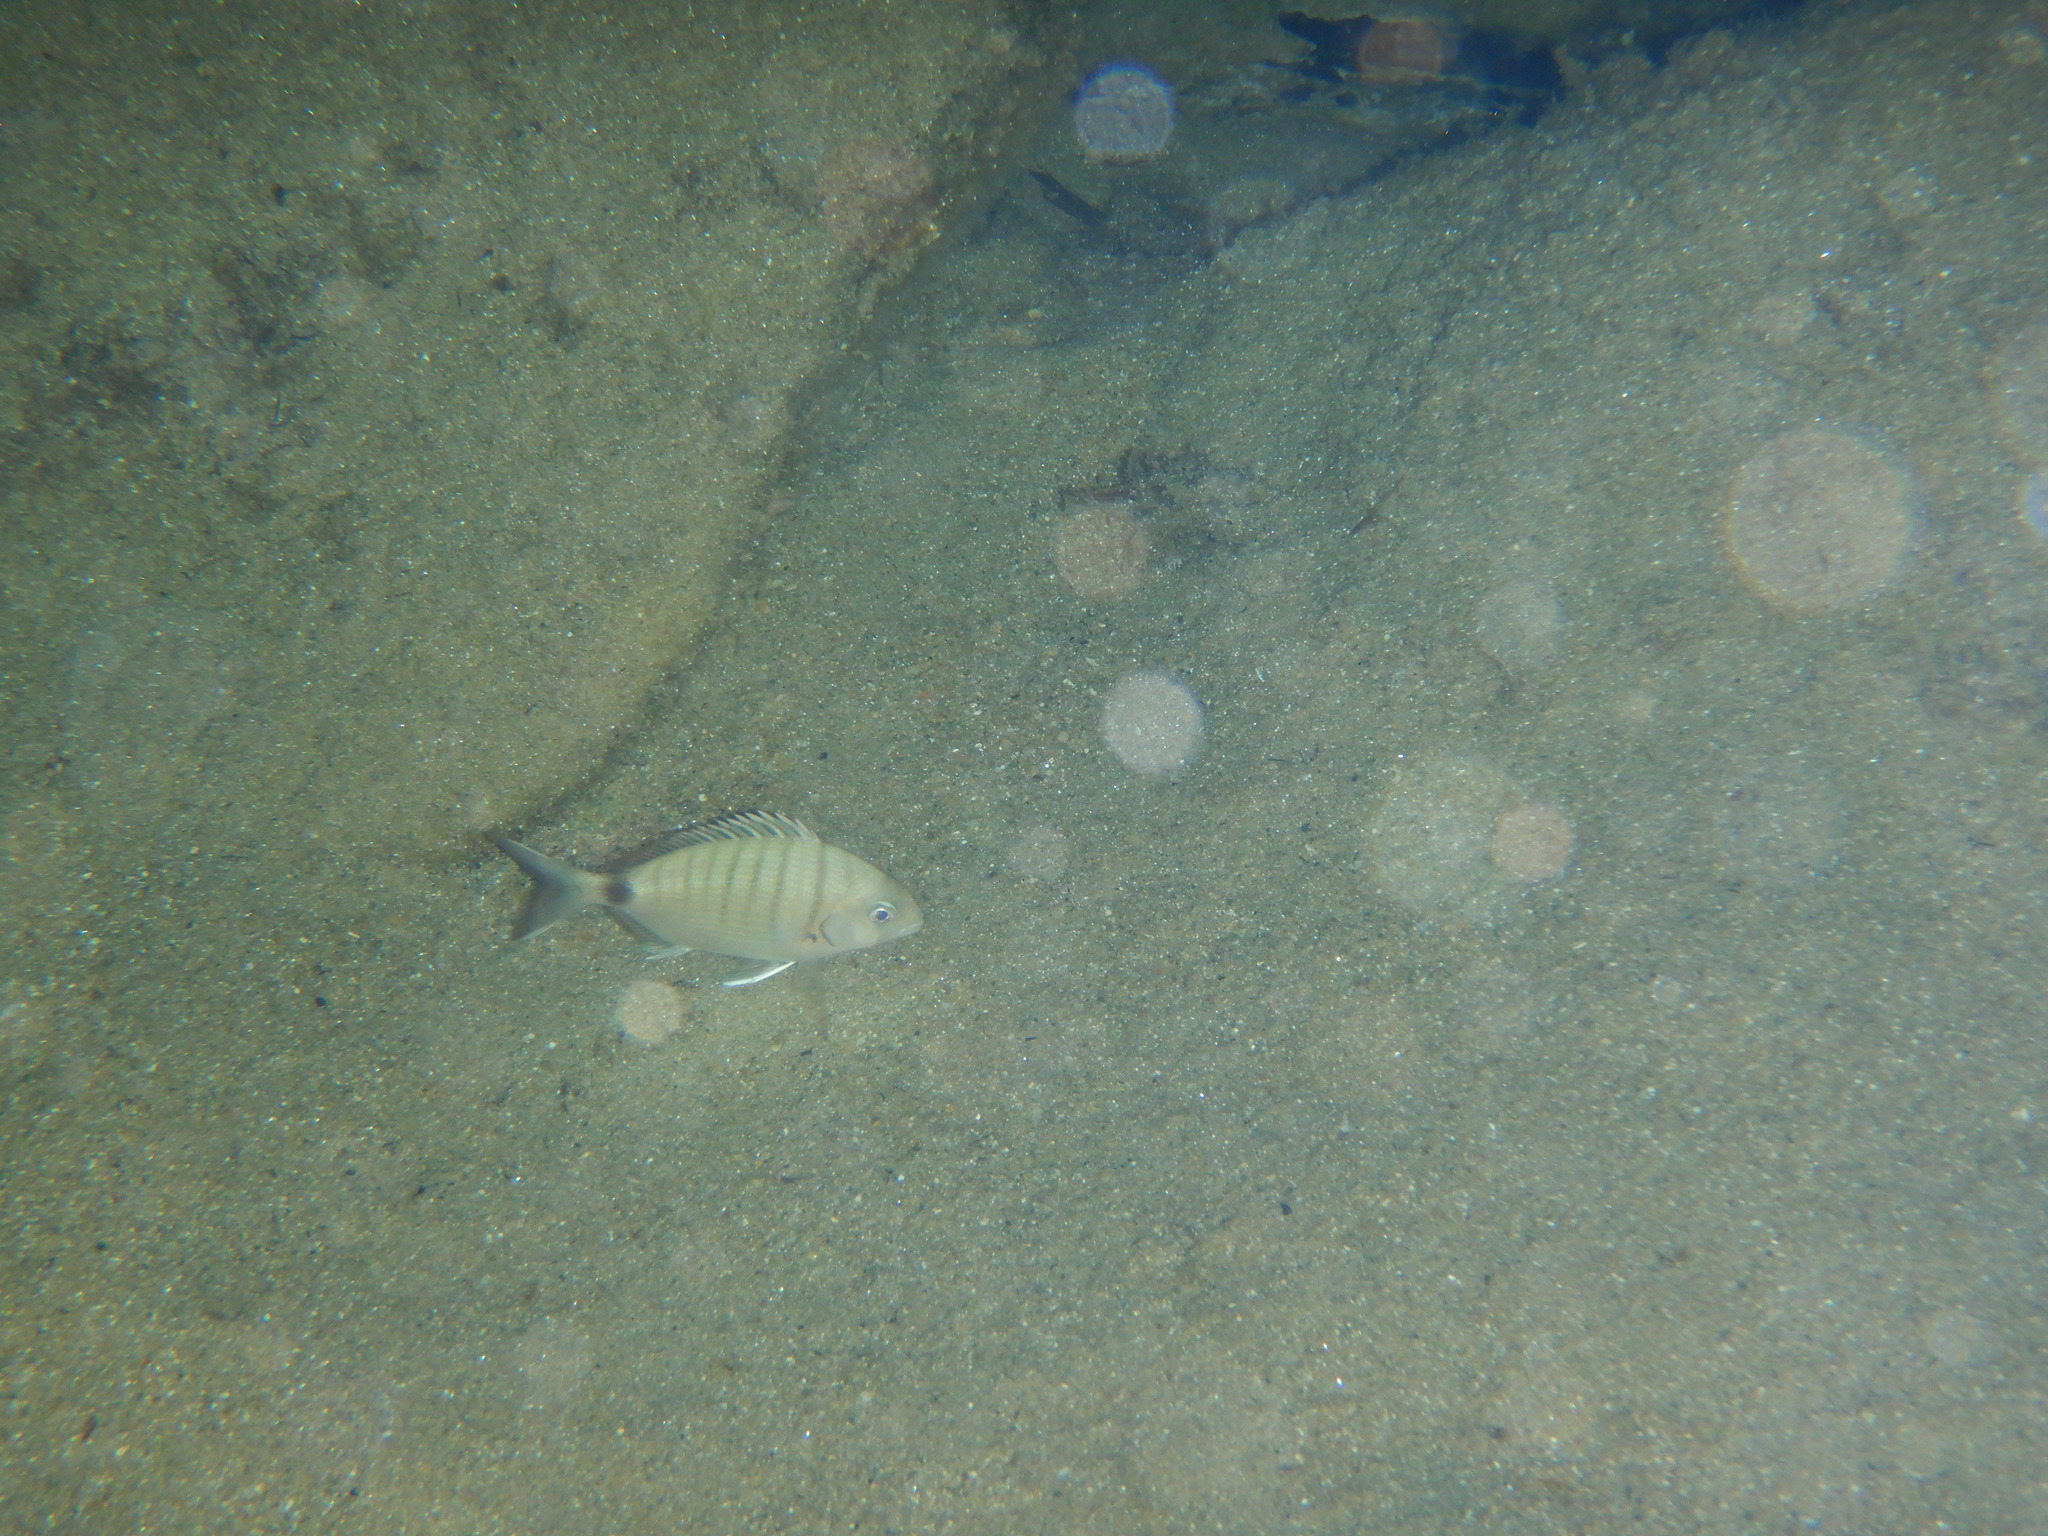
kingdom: Animalia
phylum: Chordata
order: Perciformes
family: Sparidae
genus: Diplodus
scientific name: Diplodus sargus
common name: White seabream
